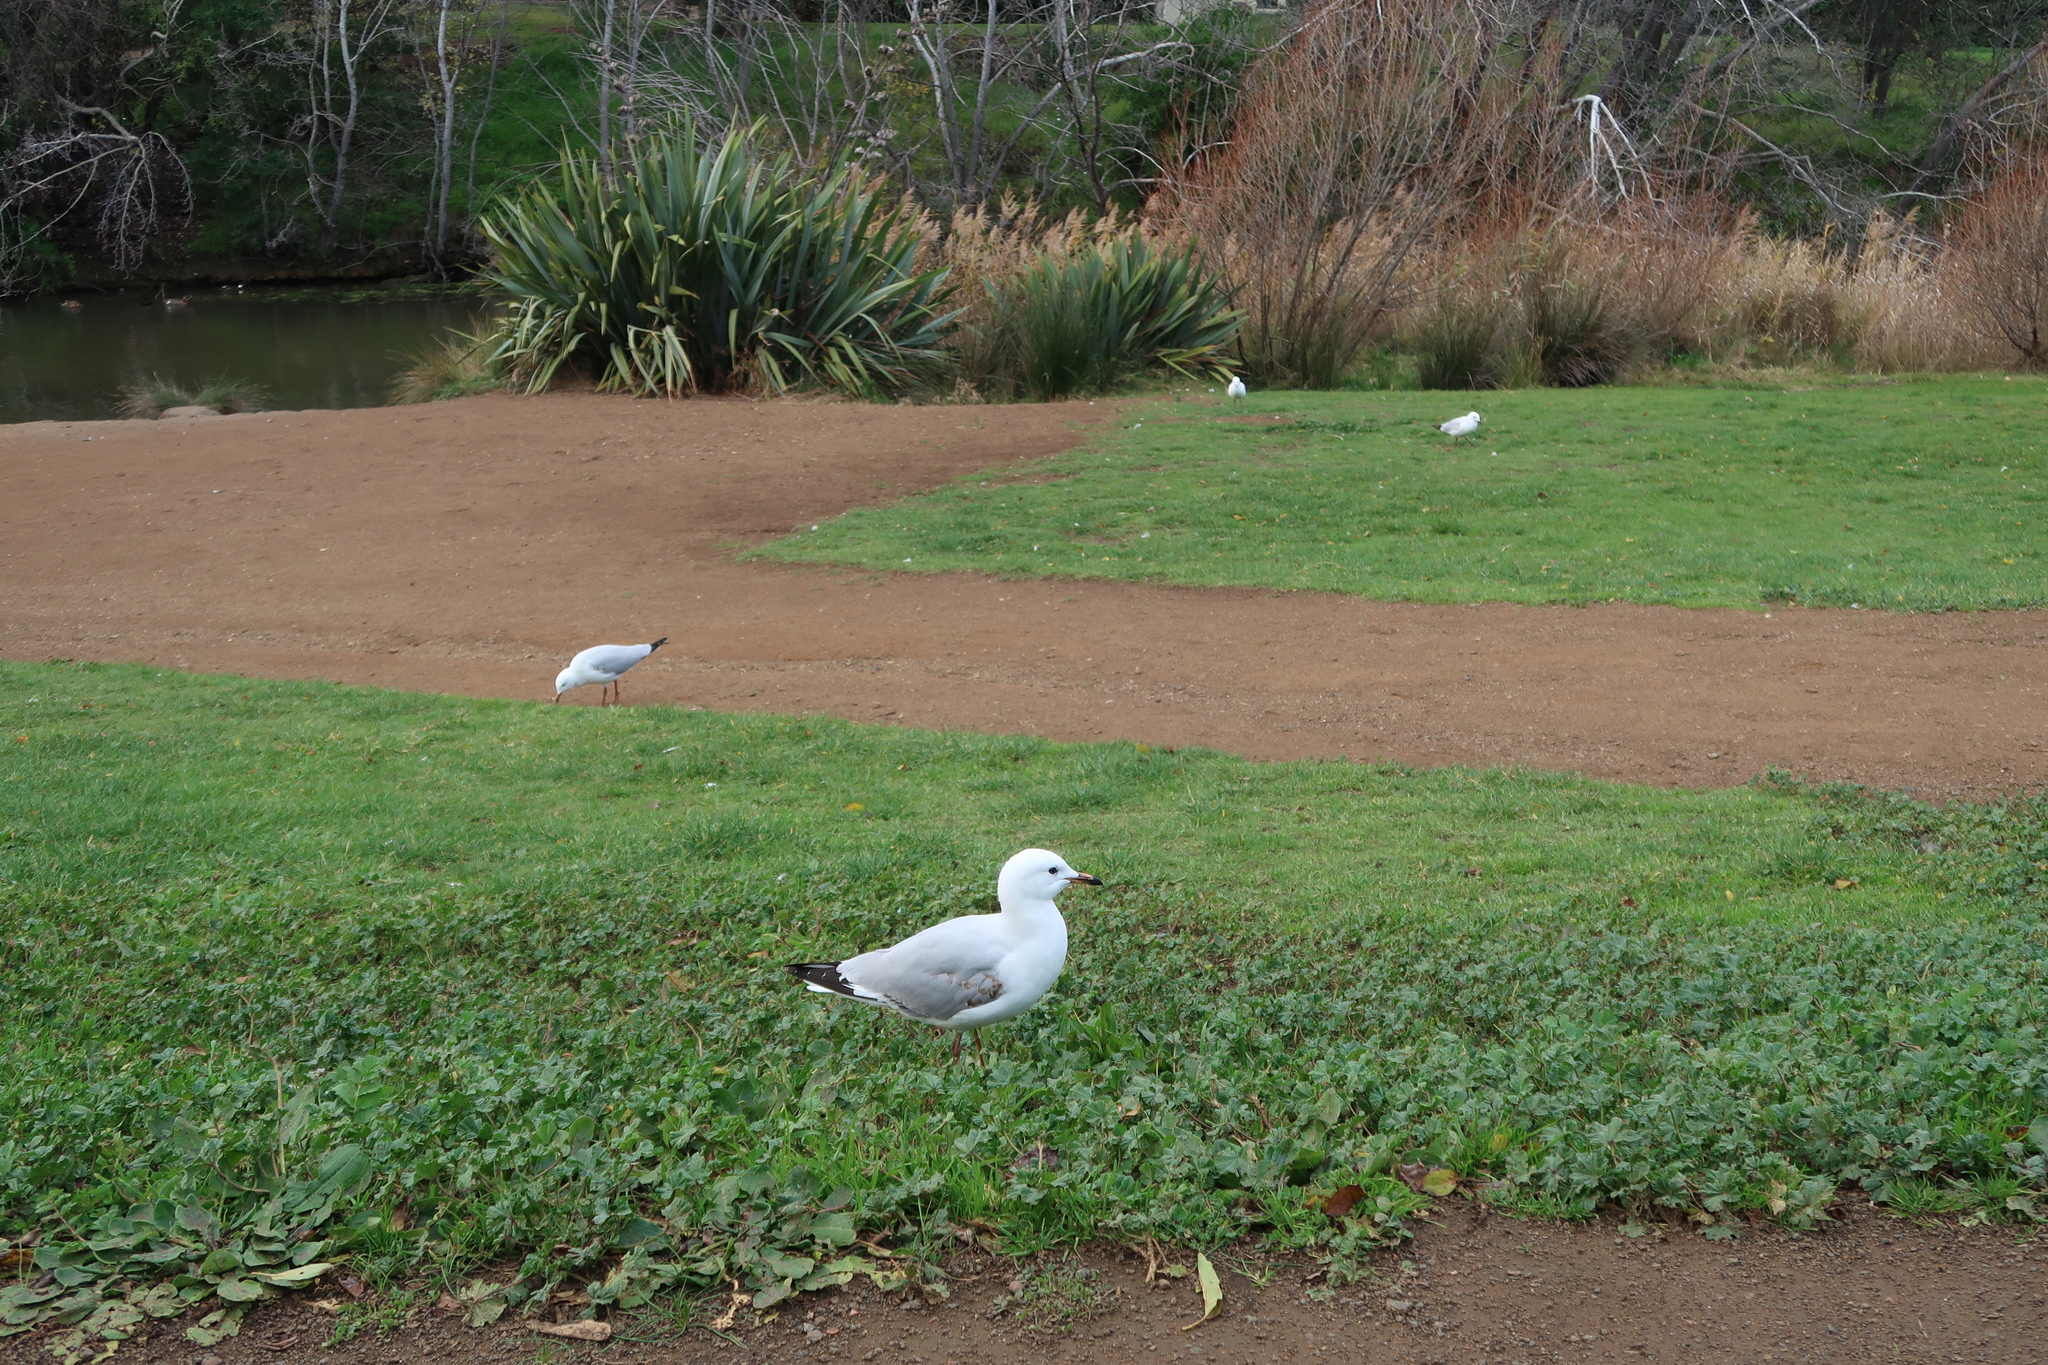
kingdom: Animalia
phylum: Chordata
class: Aves
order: Charadriiformes
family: Laridae
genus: Chroicocephalus
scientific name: Chroicocephalus novaehollandiae
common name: Silver gull
